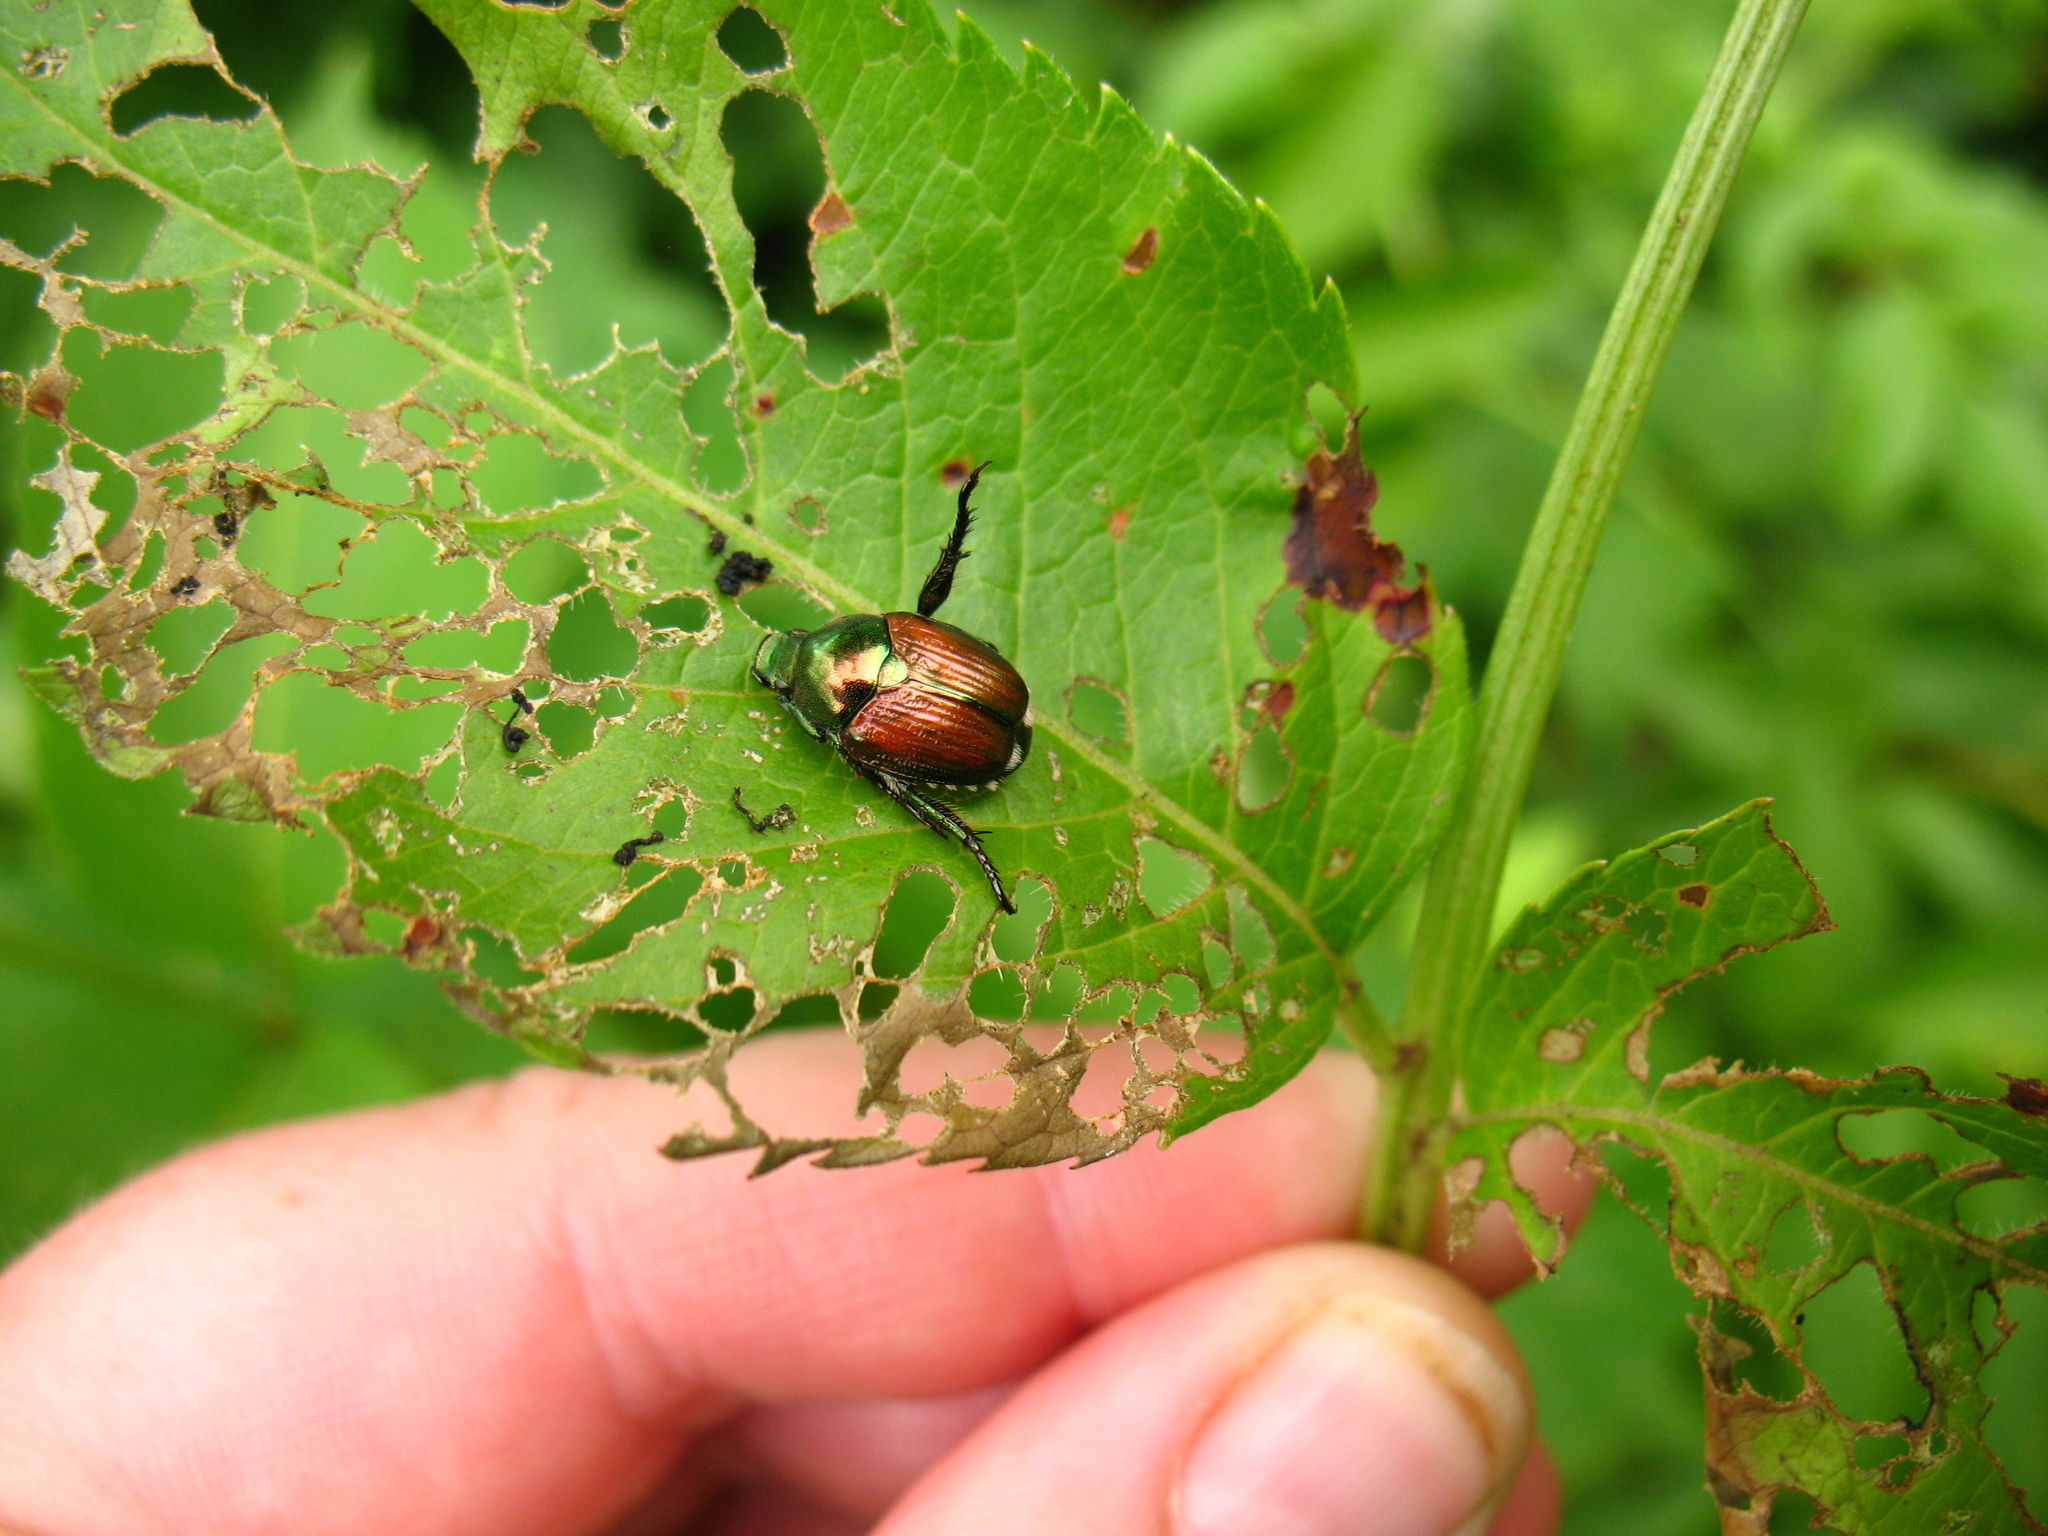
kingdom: Animalia
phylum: Arthropoda
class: Insecta
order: Coleoptera
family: Scarabaeidae
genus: Popillia
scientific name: Popillia japonica
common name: Japanese beetle
